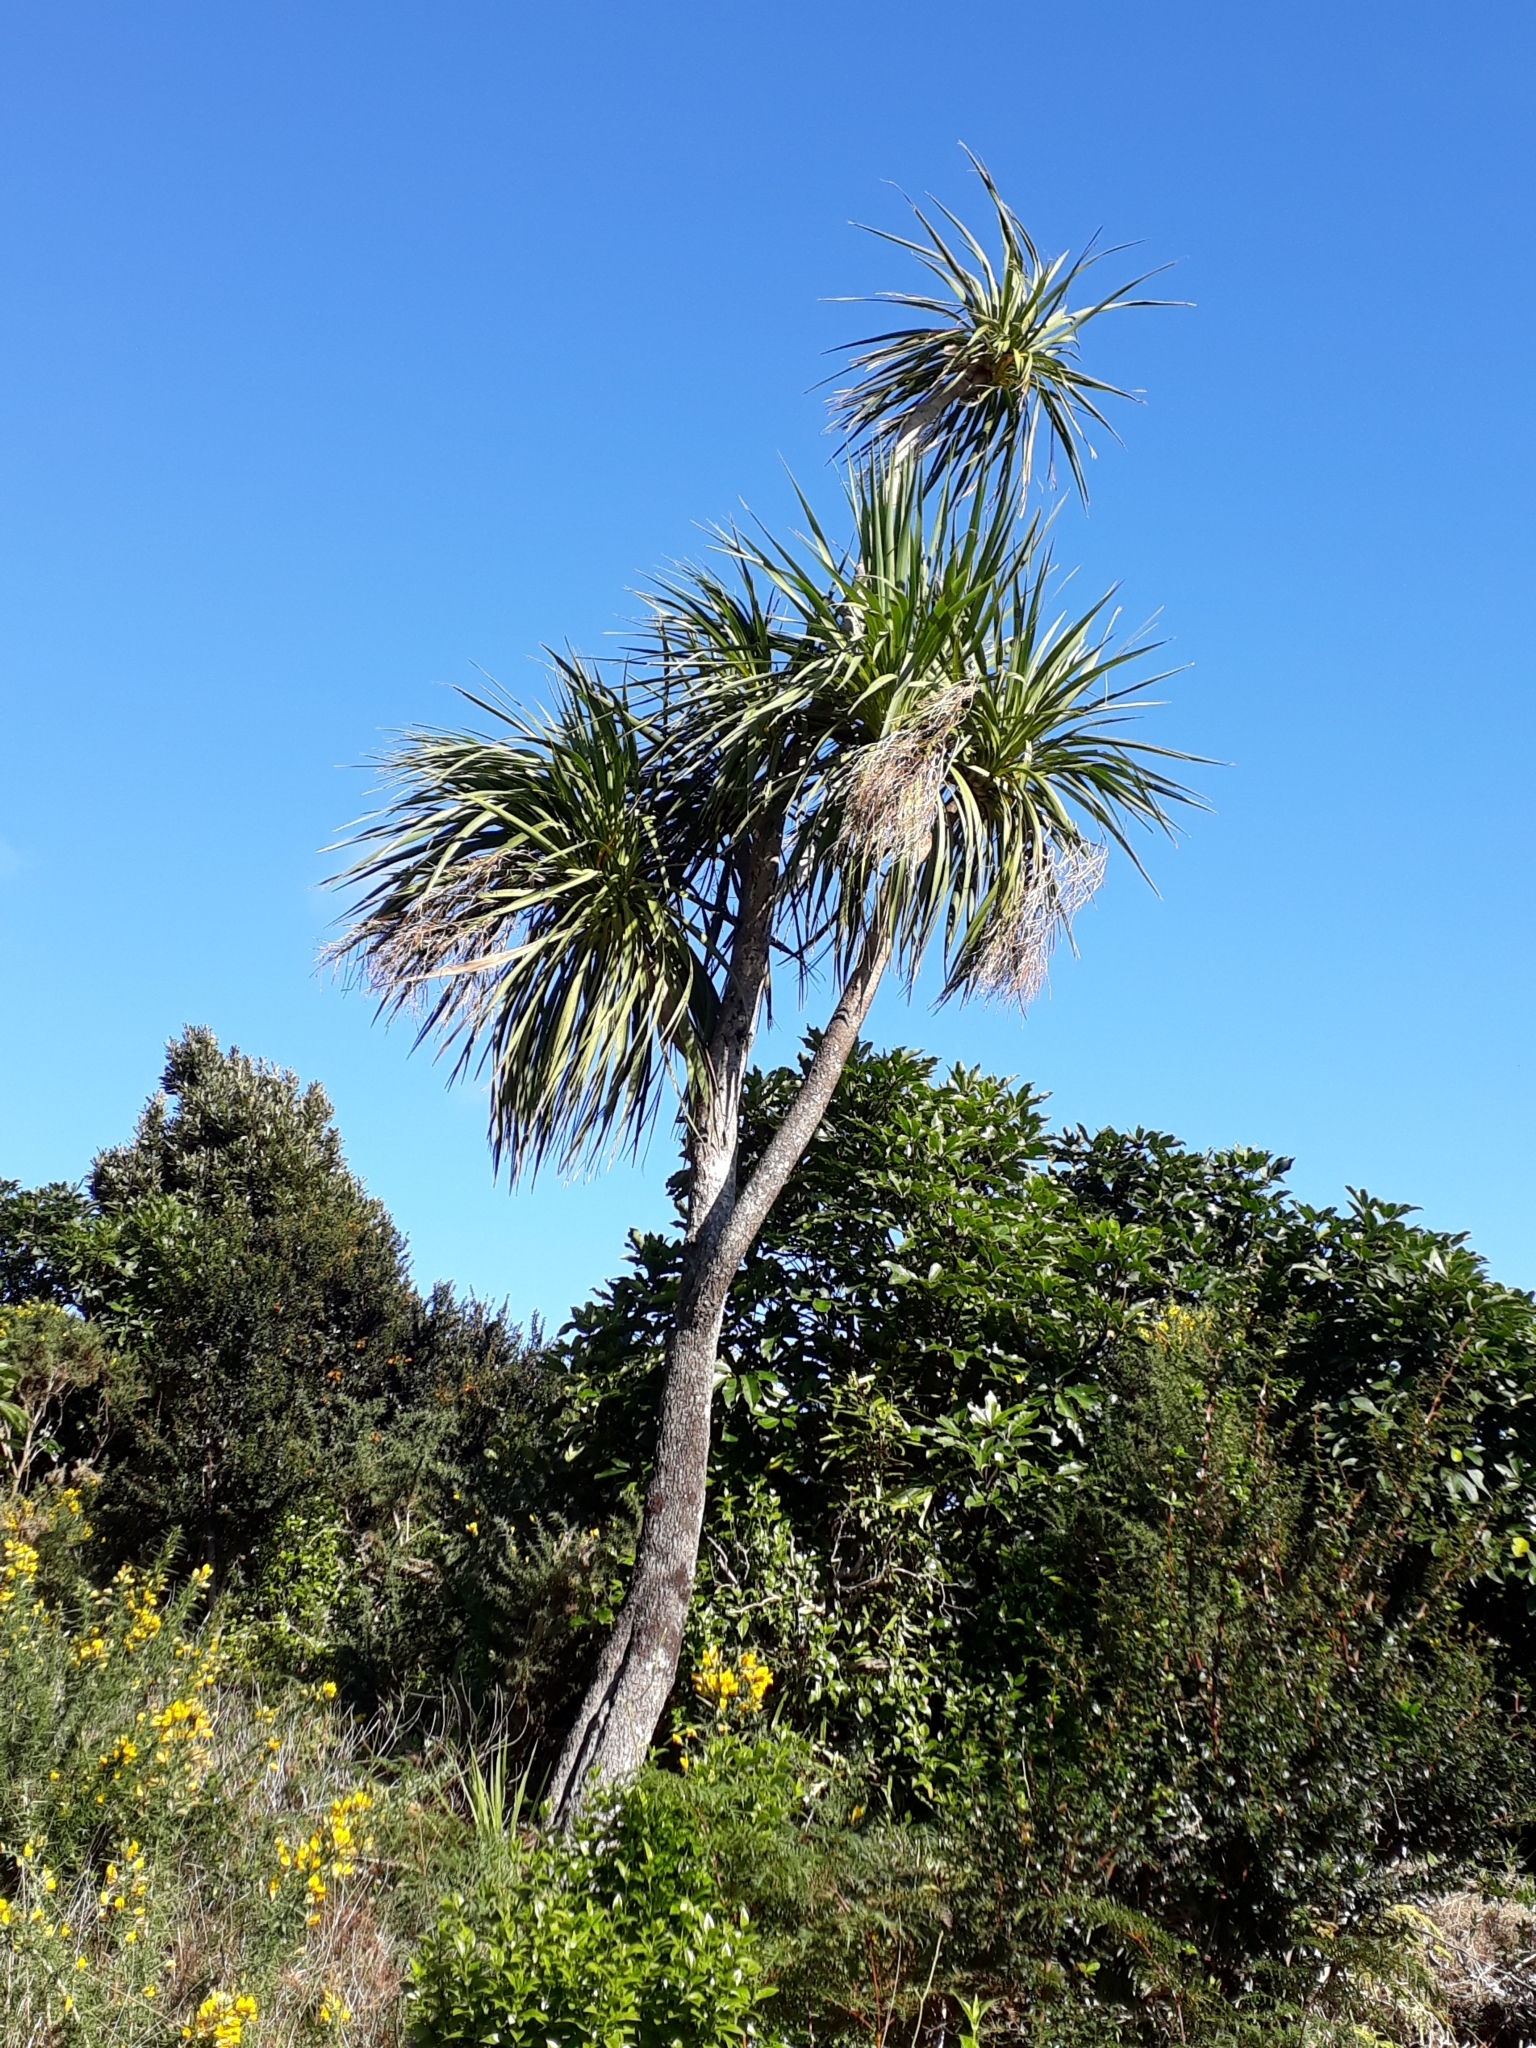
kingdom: Plantae
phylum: Tracheophyta
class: Liliopsida
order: Asparagales
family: Asparagaceae
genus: Cordyline
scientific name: Cordyline australis
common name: Cabbage-palm
